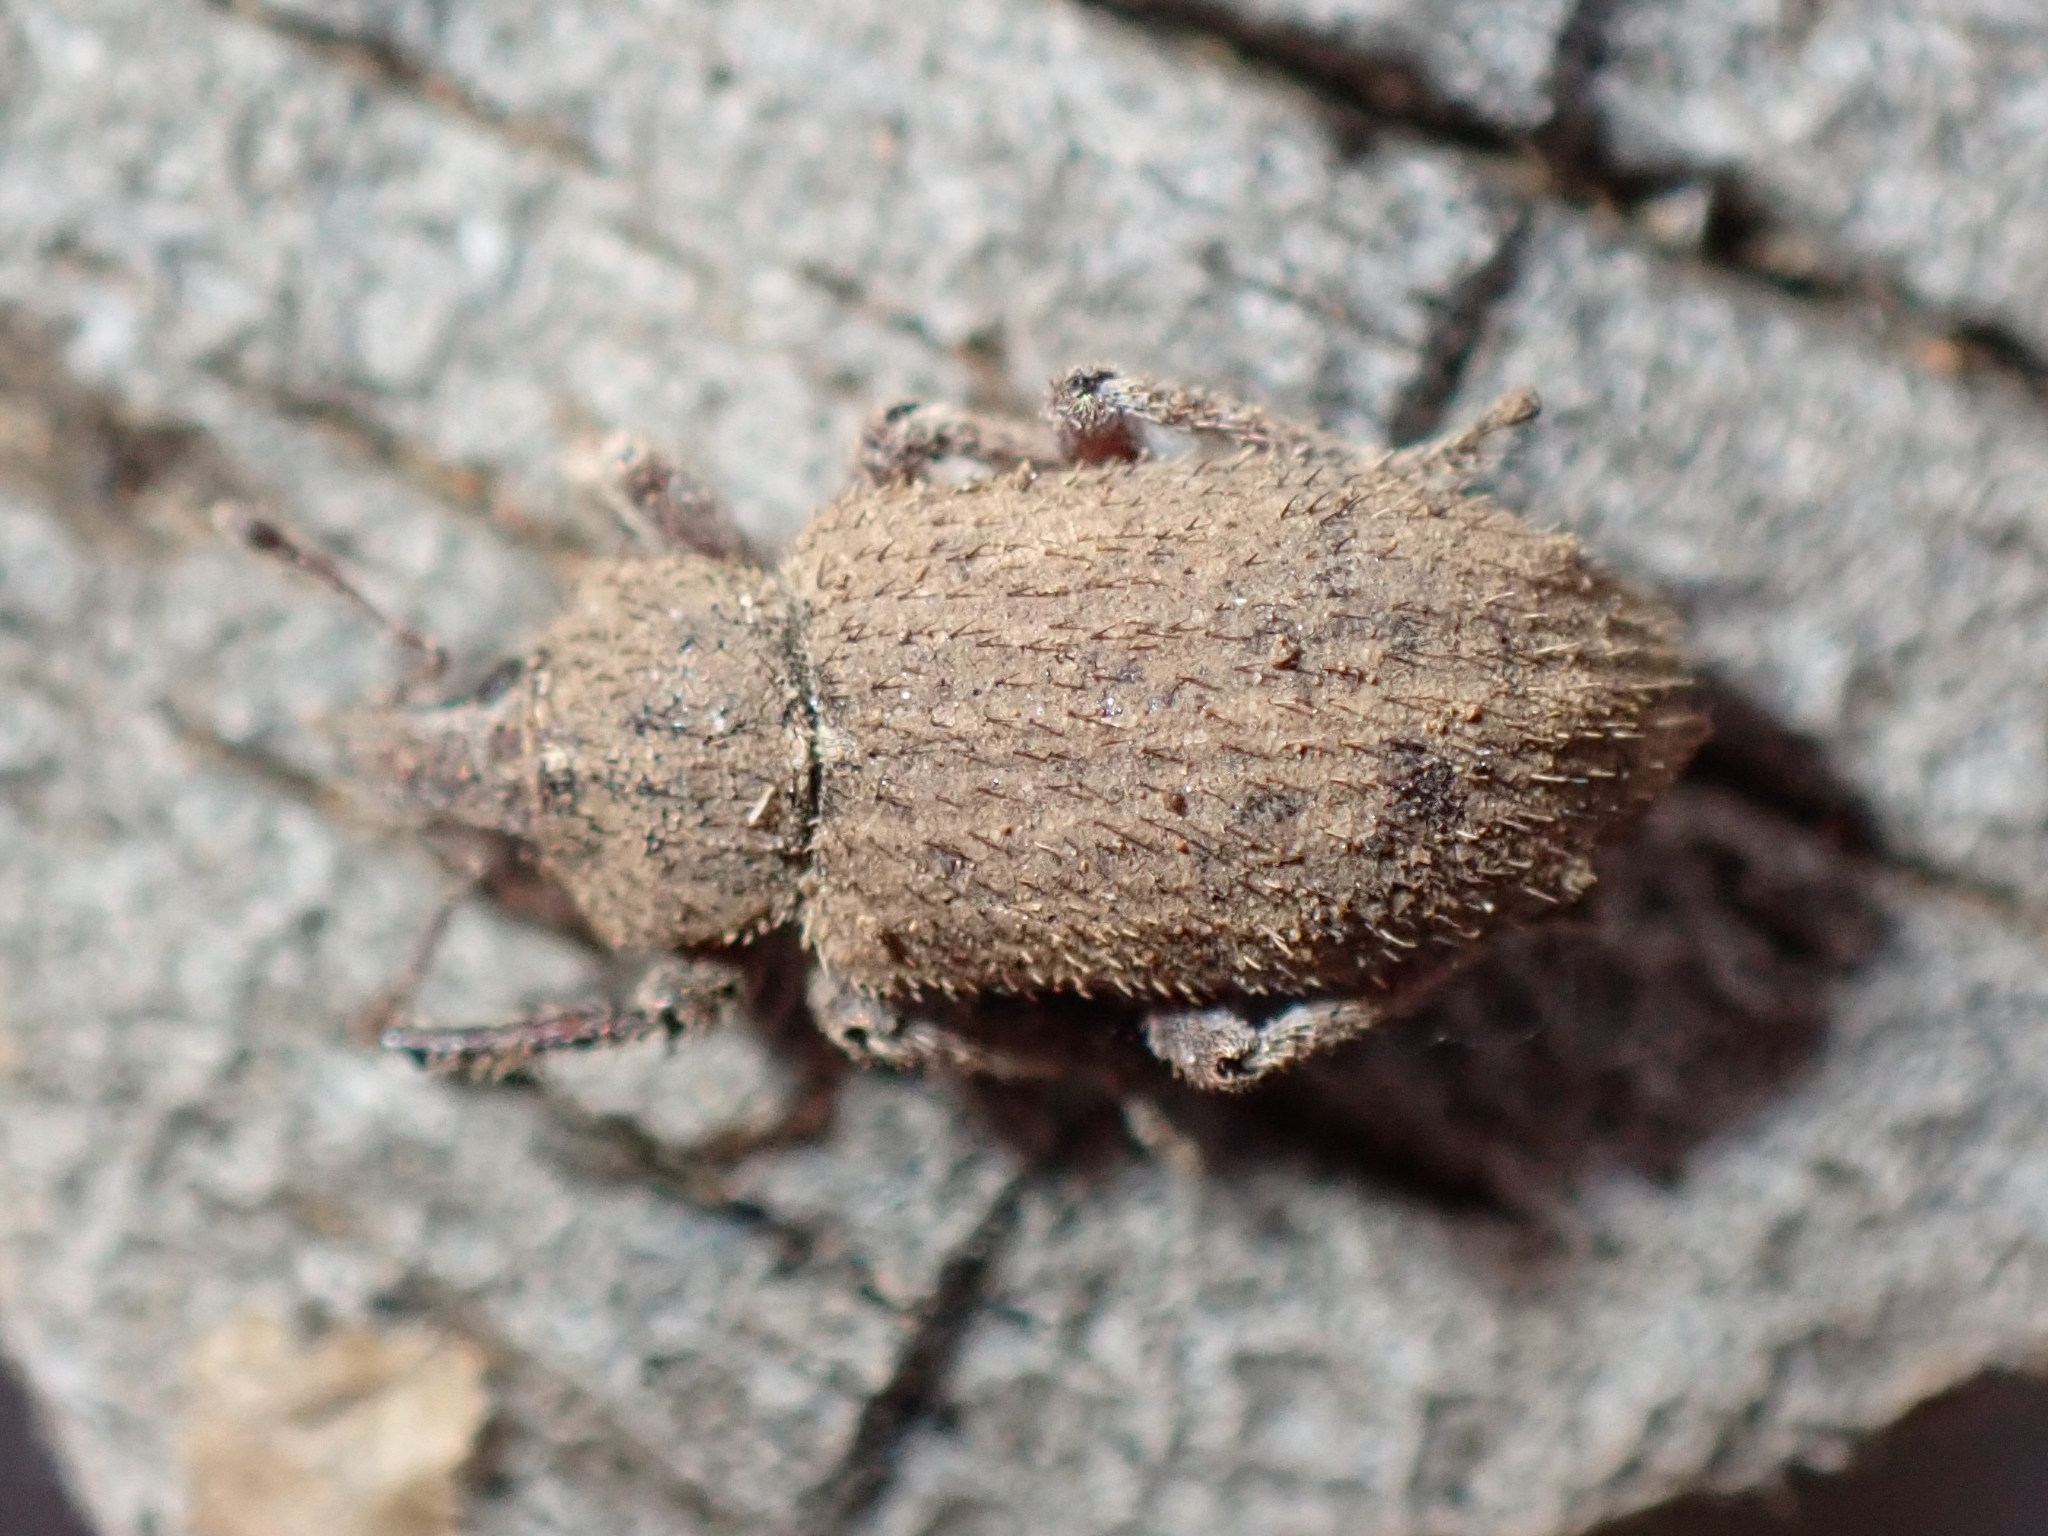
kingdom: Animalia
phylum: Arthropoda
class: Insecta
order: Coleoptera
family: Curculionidae
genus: Listroderes
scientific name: Listroderes costirostris
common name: Weevil
